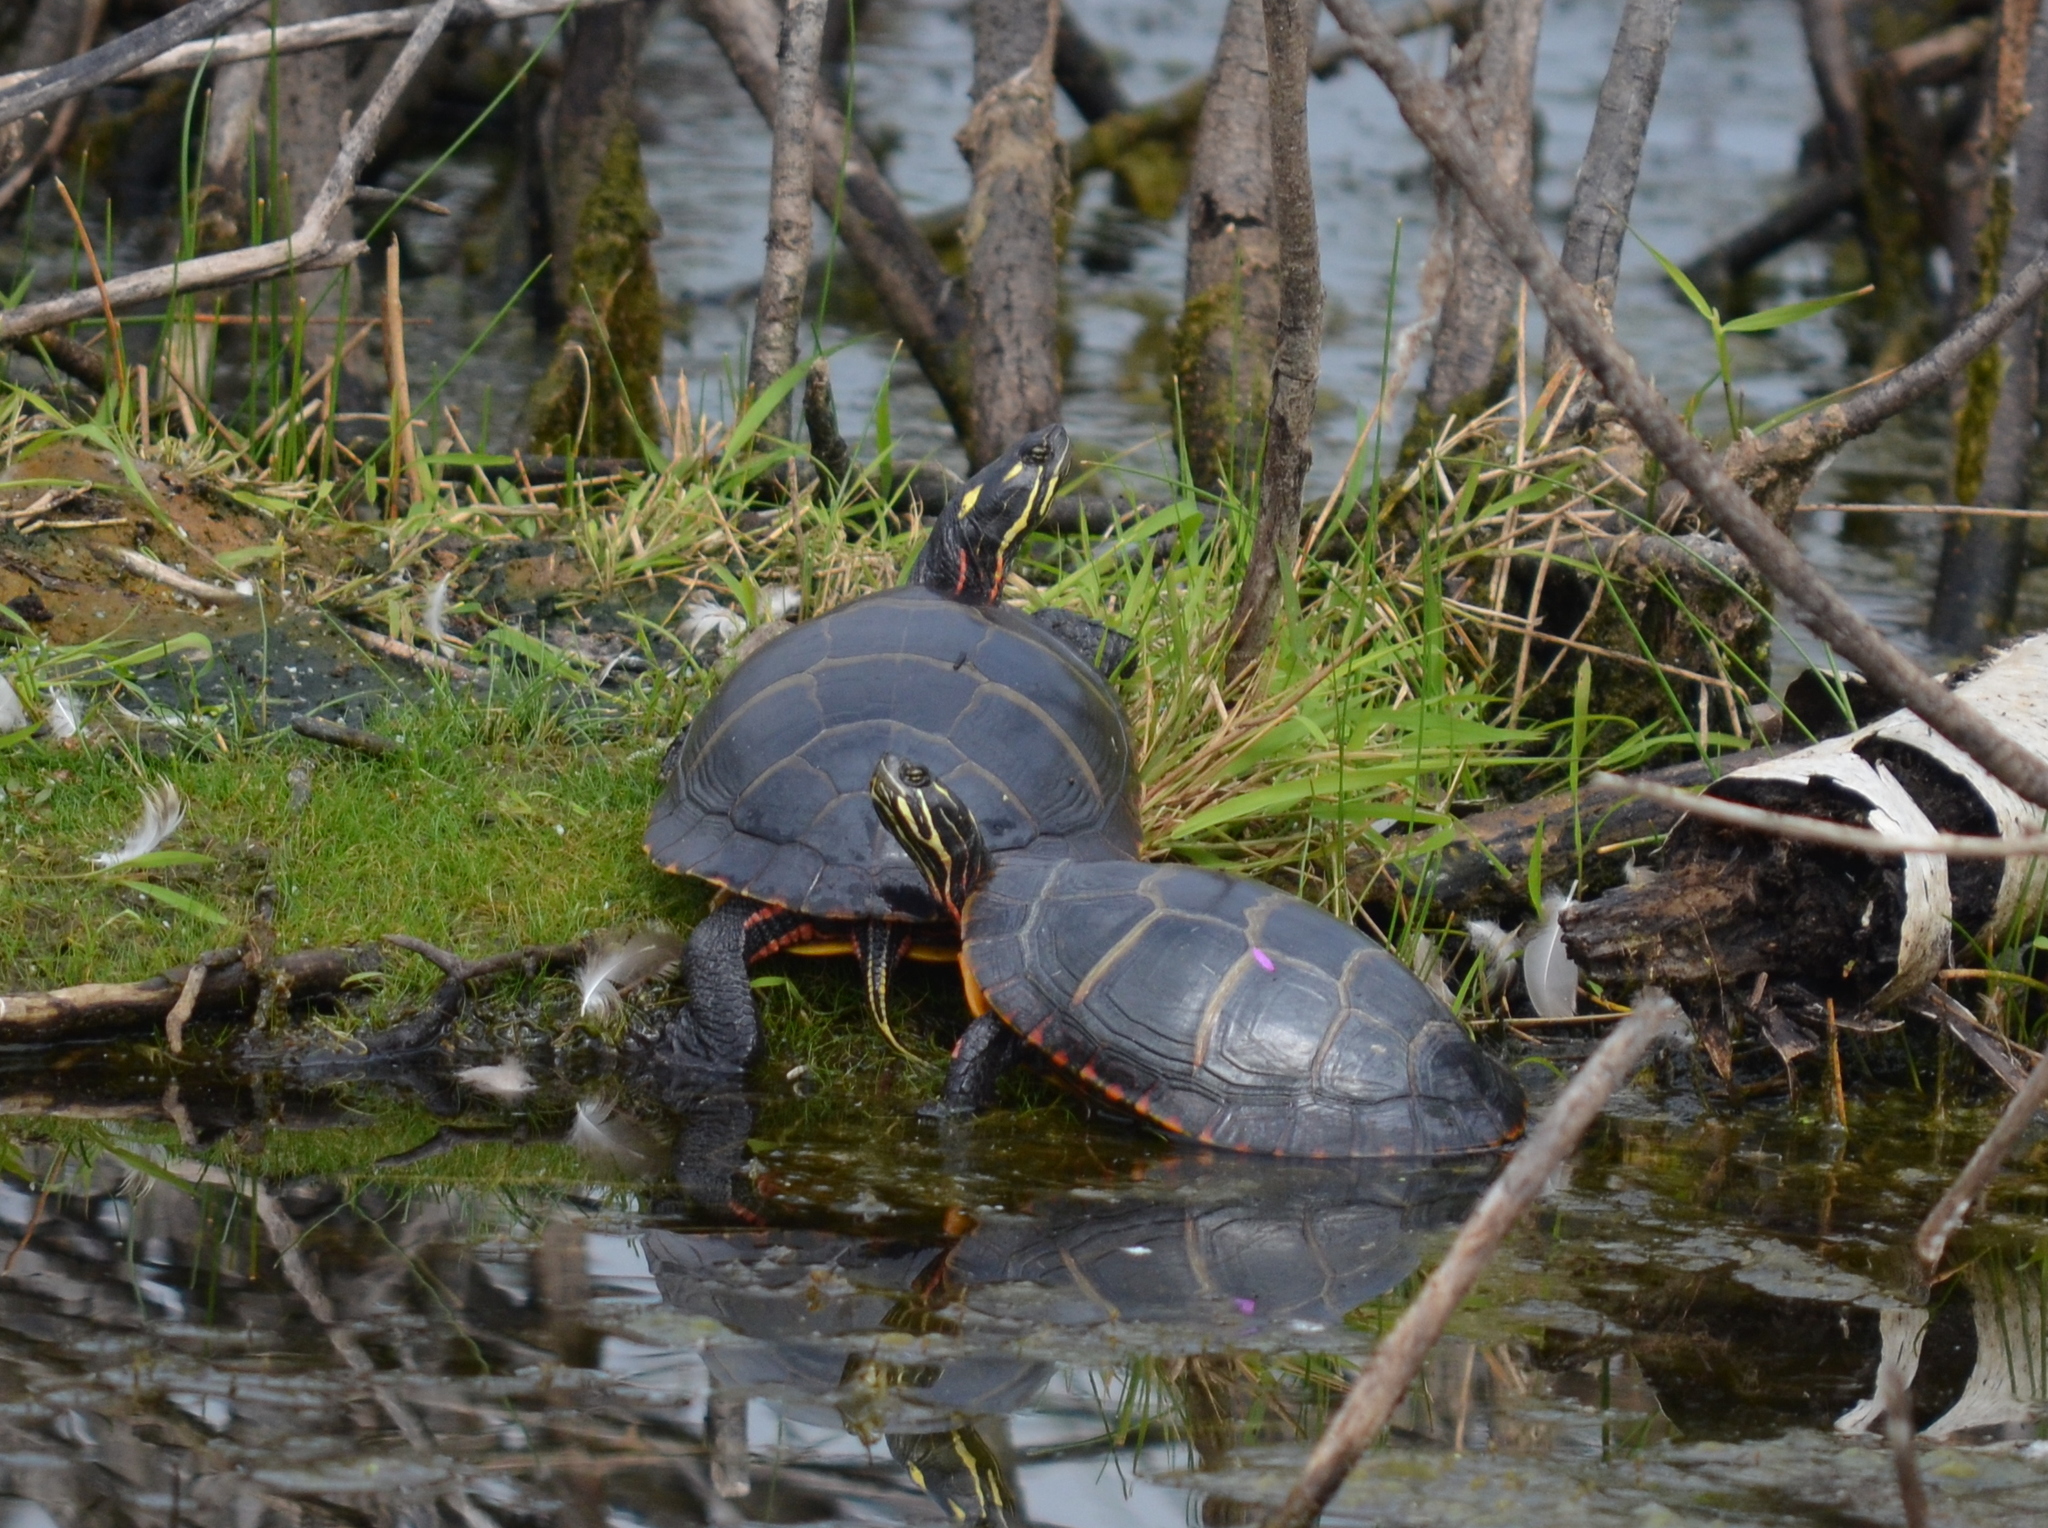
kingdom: Animalia
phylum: Chordata
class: Testudines
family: Emydidae
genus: Chrysemys
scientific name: Chrysemys picta
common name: Painted turtle
